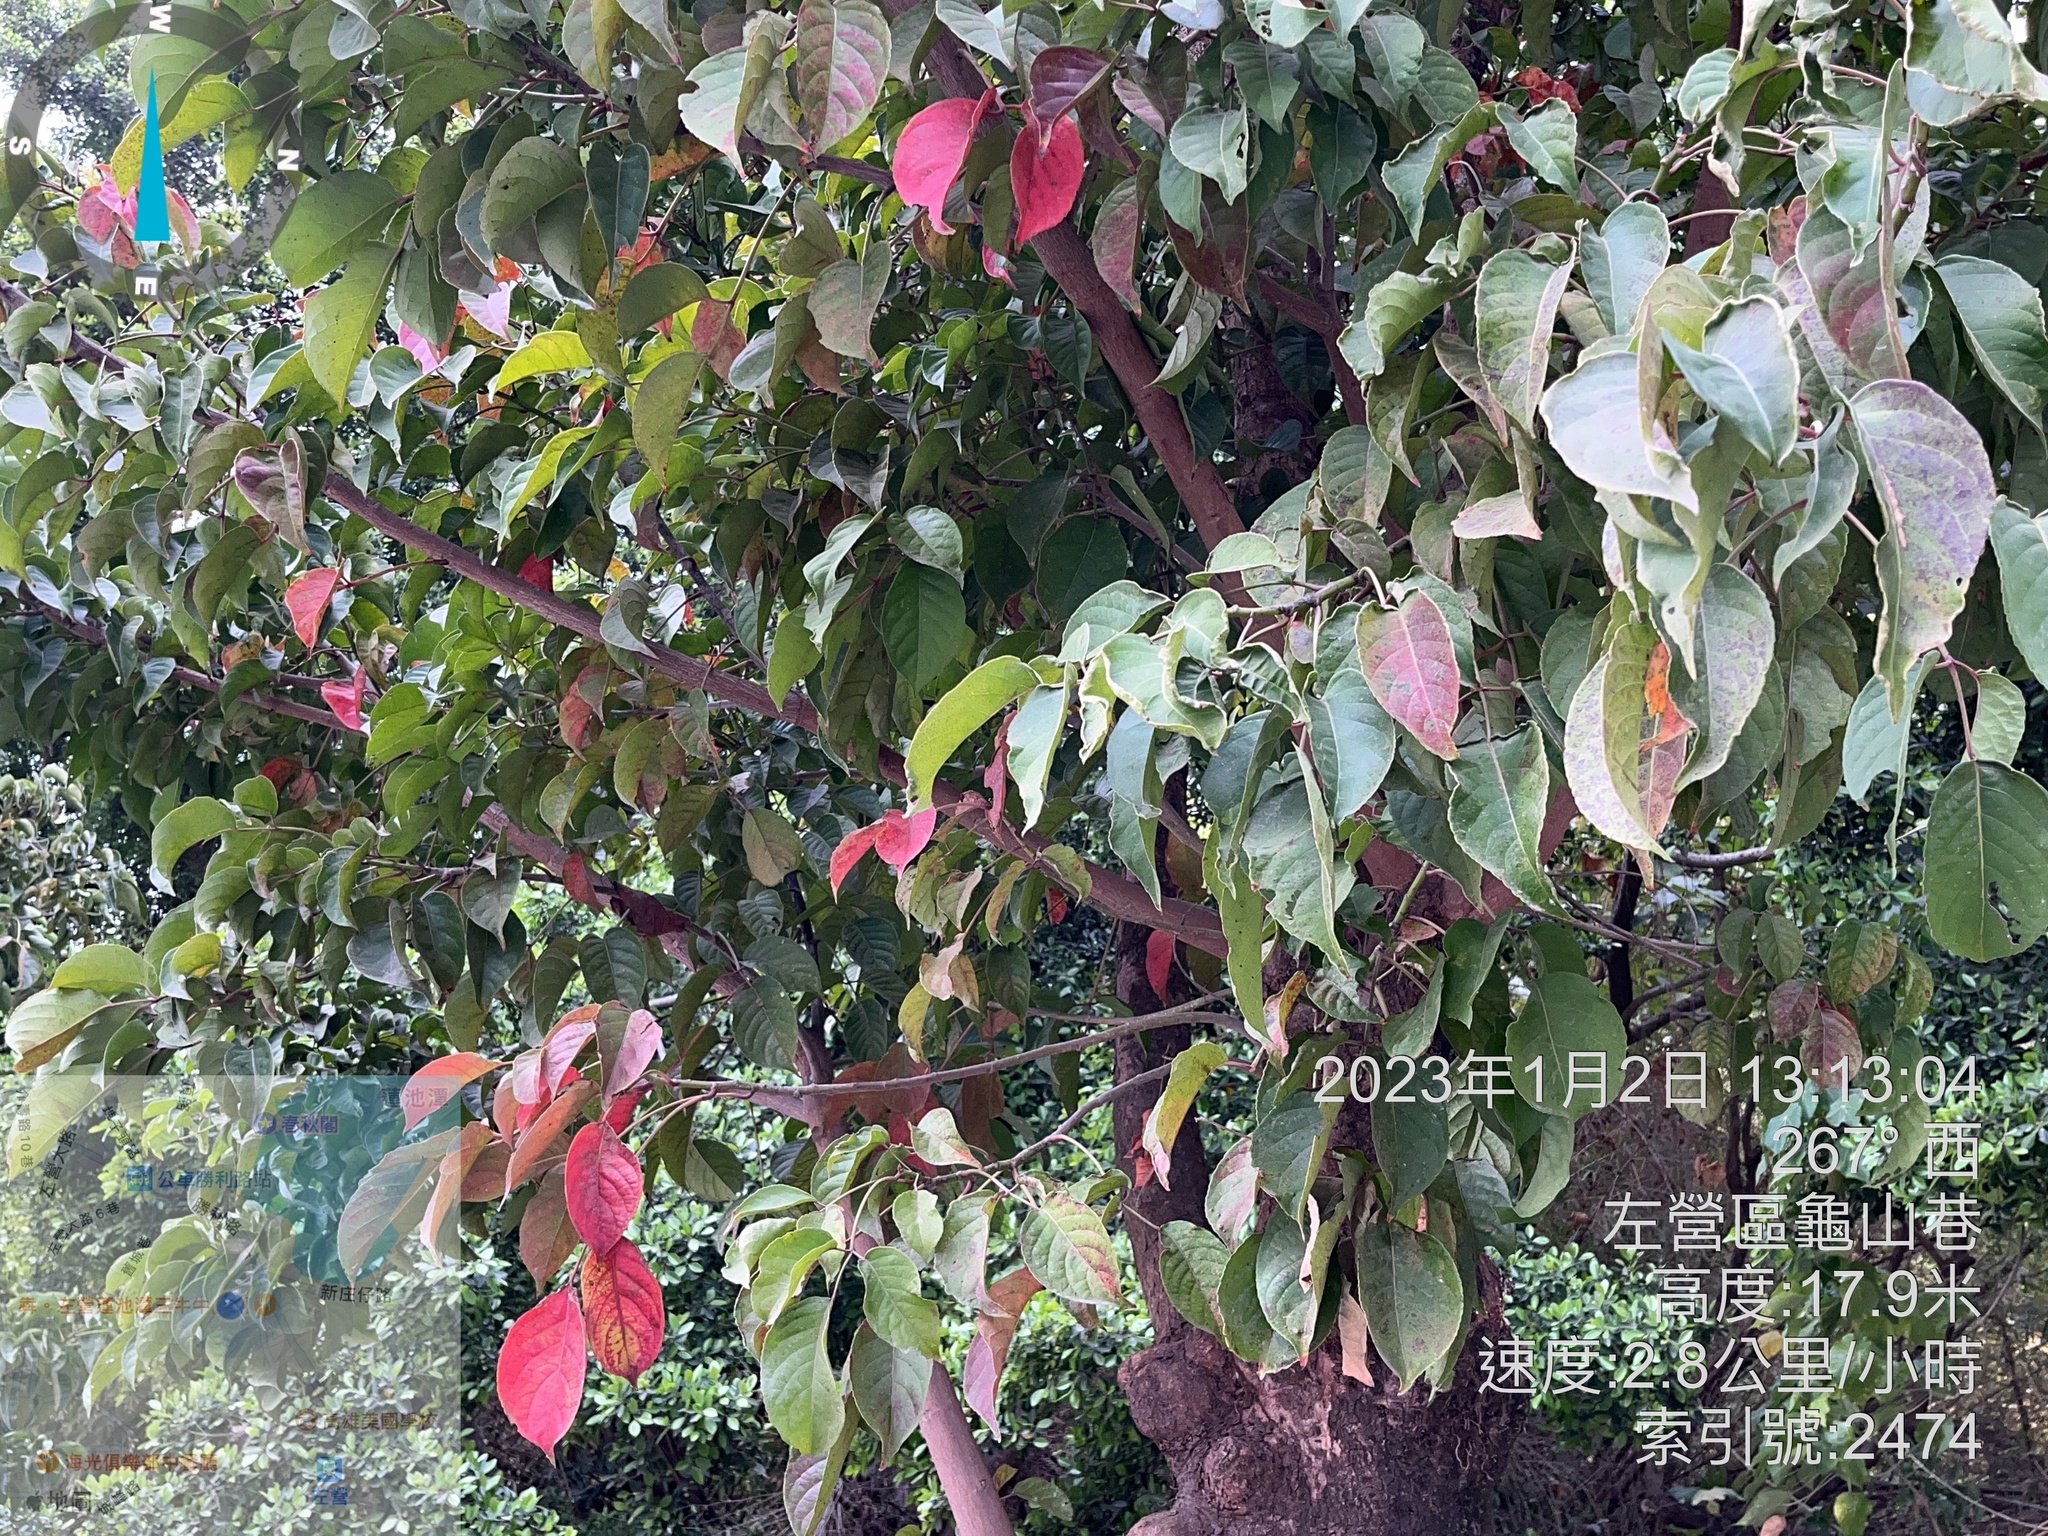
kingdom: Plantae
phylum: Tracheophyta
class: Magnoliopsida
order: Malpighiales
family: Phyllanthaceae
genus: Bischofia
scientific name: Bischofia javanica
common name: Javanese bishopwood
